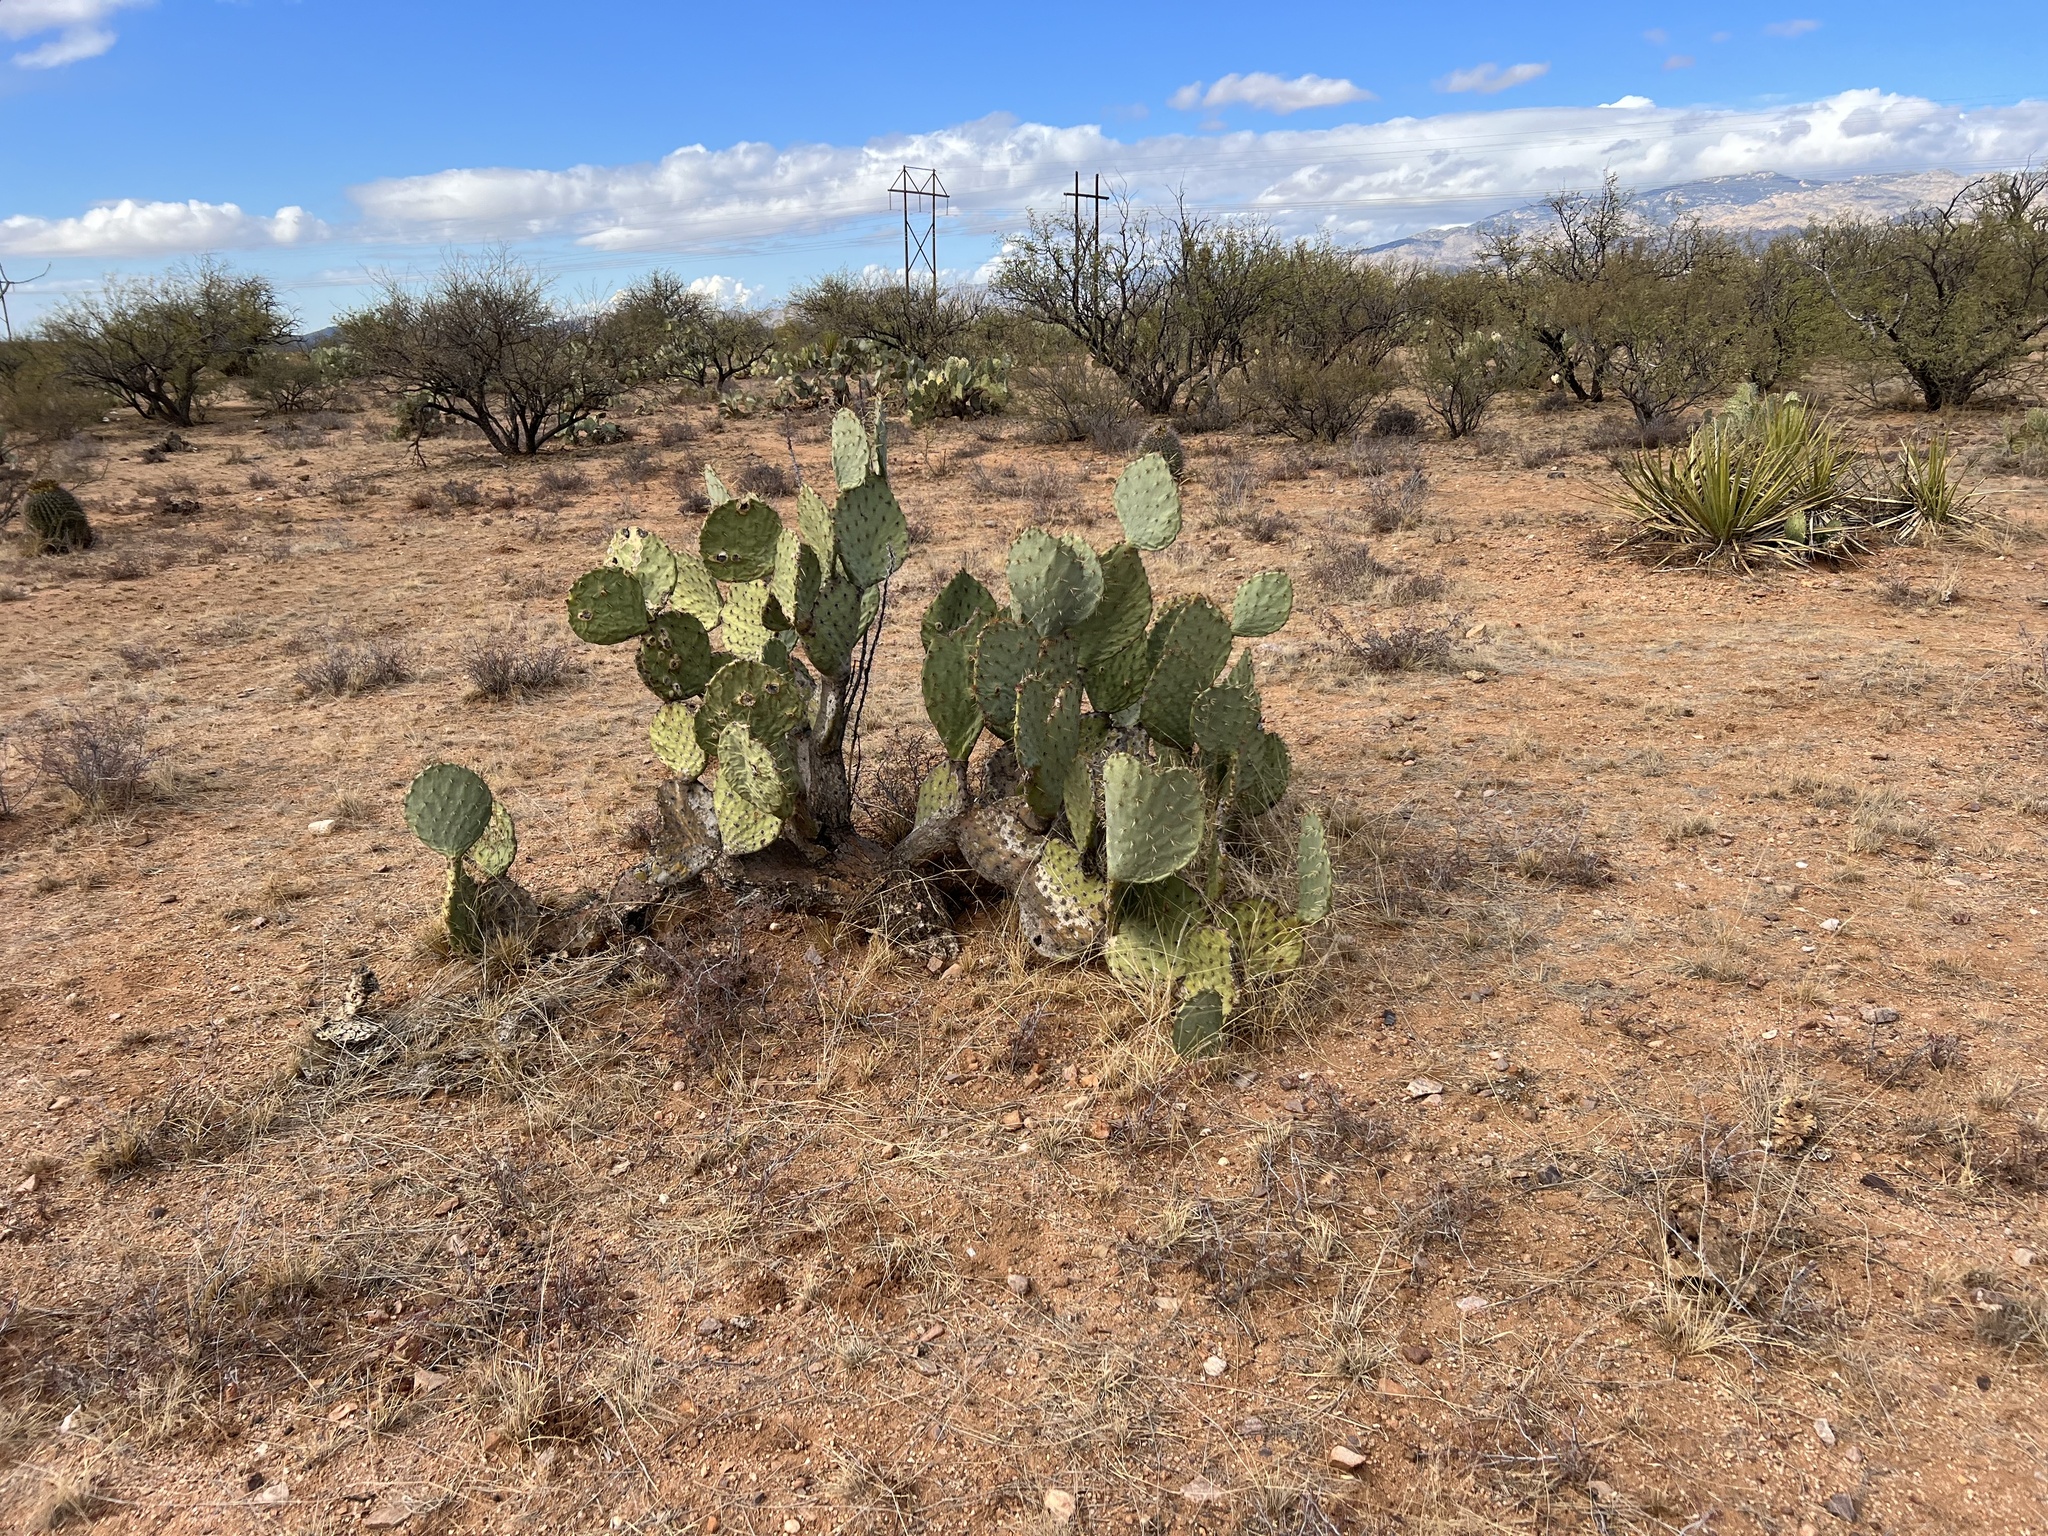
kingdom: Plantae
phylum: Tracheophyta
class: Magnoliopsida
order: Caryophyllales
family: Cactaceae
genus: Opuntia
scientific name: Opuntia engelmannii
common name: Cactus-apple
